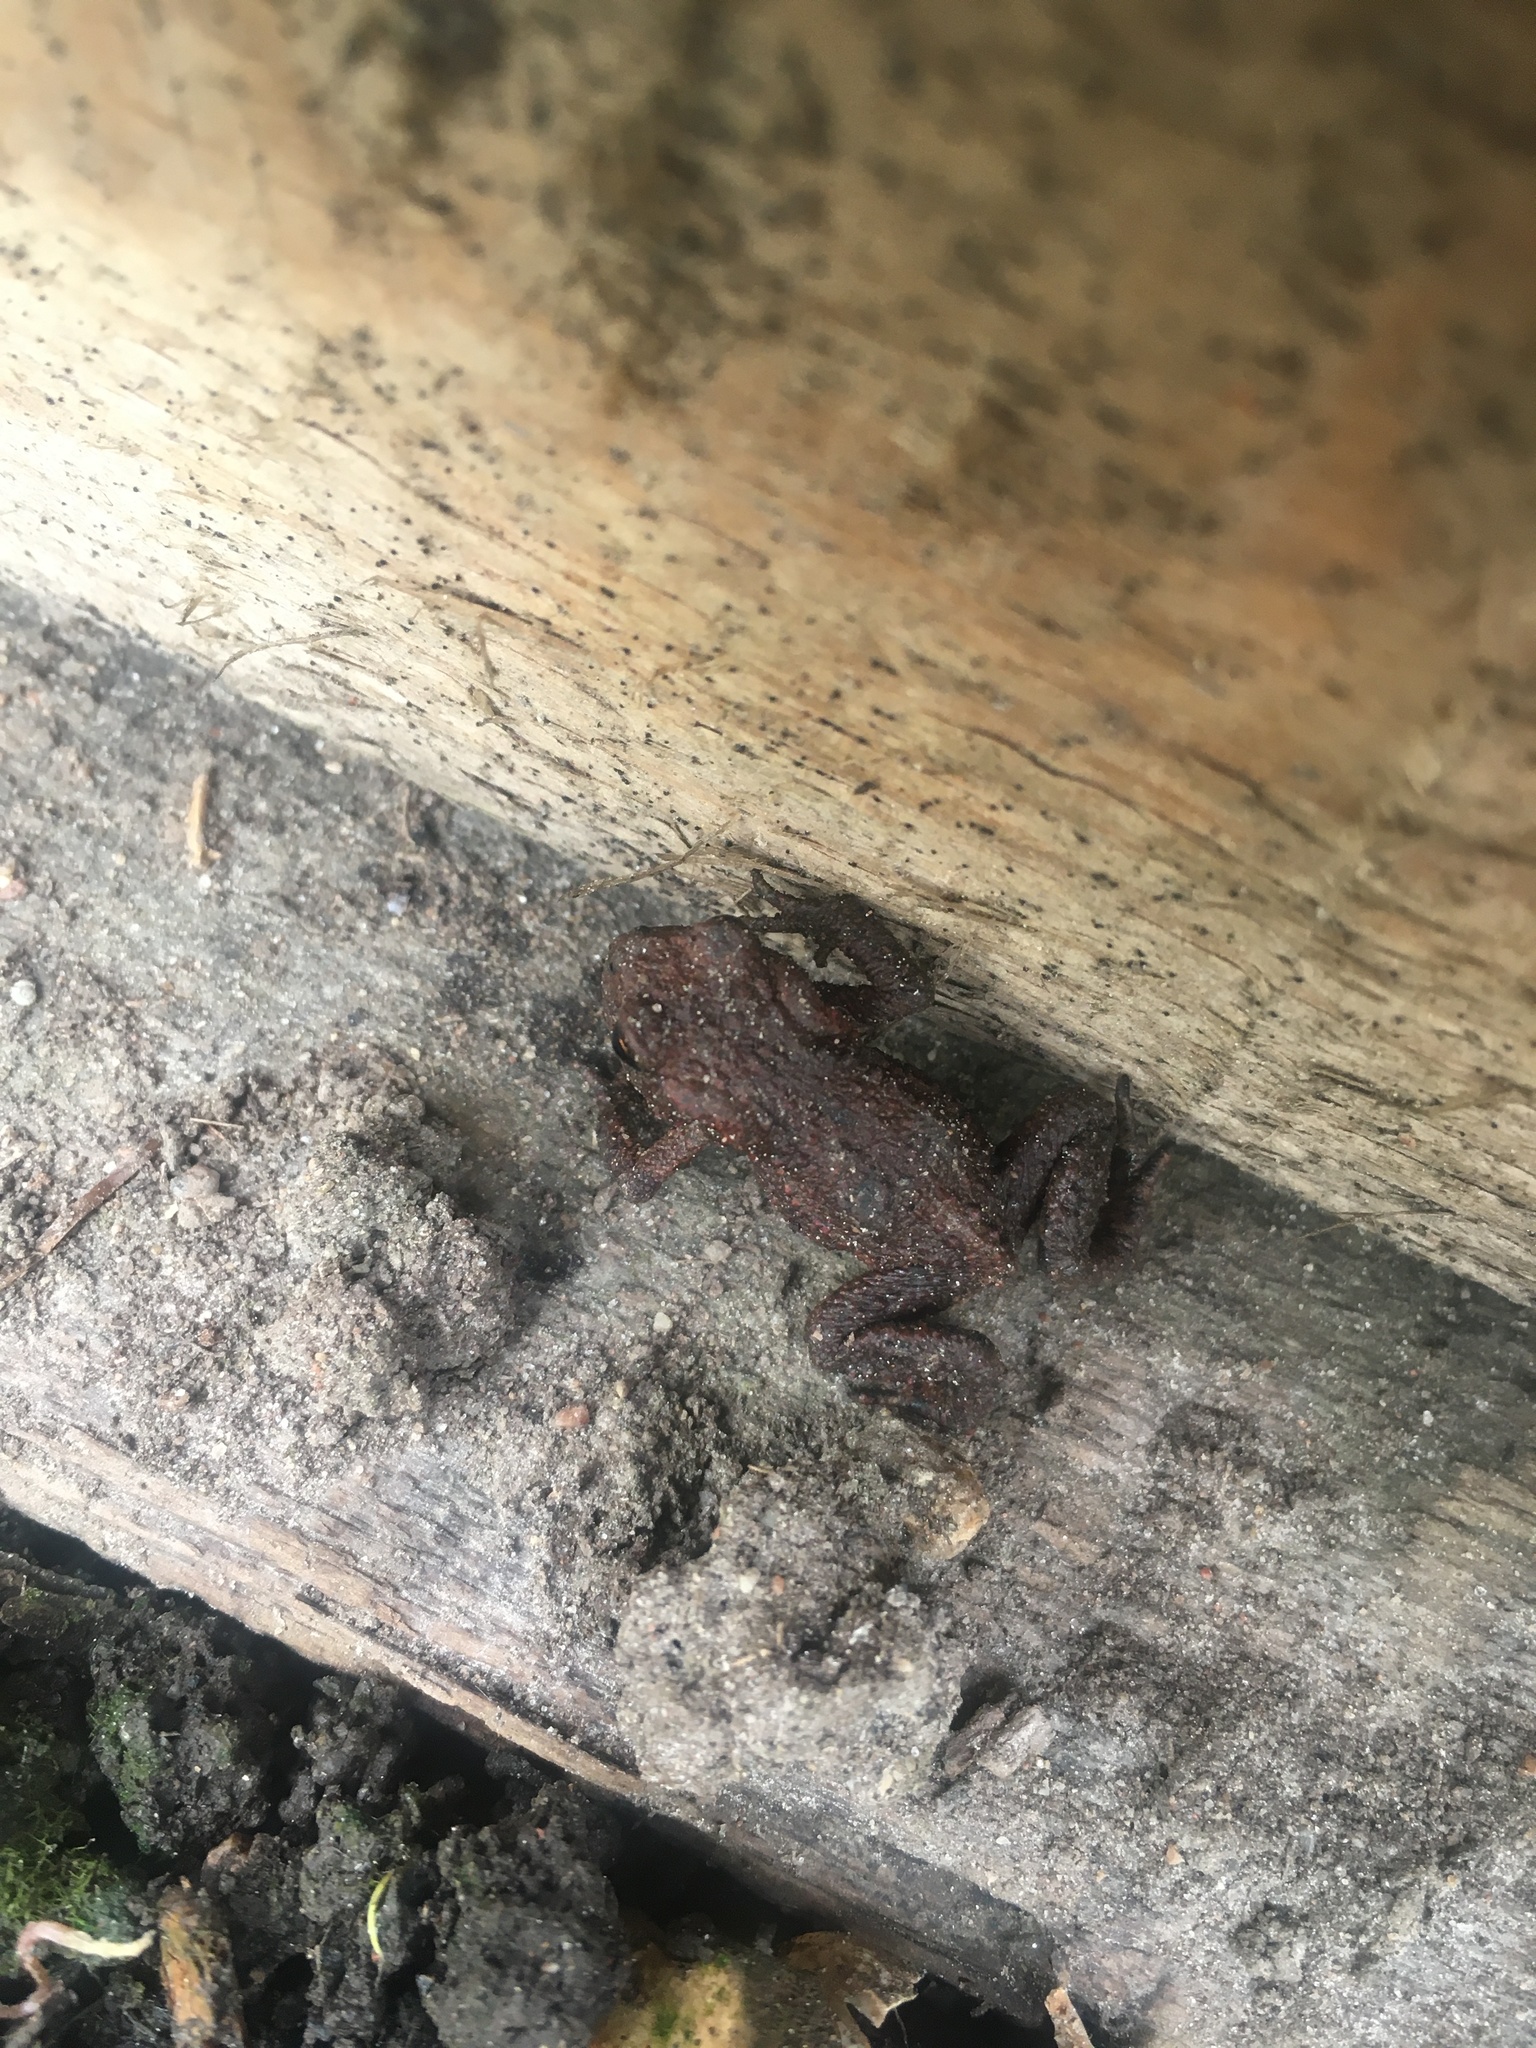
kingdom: Animalia
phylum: Chordata
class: Amphibia
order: Anura
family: Bufonidae
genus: Bufo
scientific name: Bufo bufo
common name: Common toad
